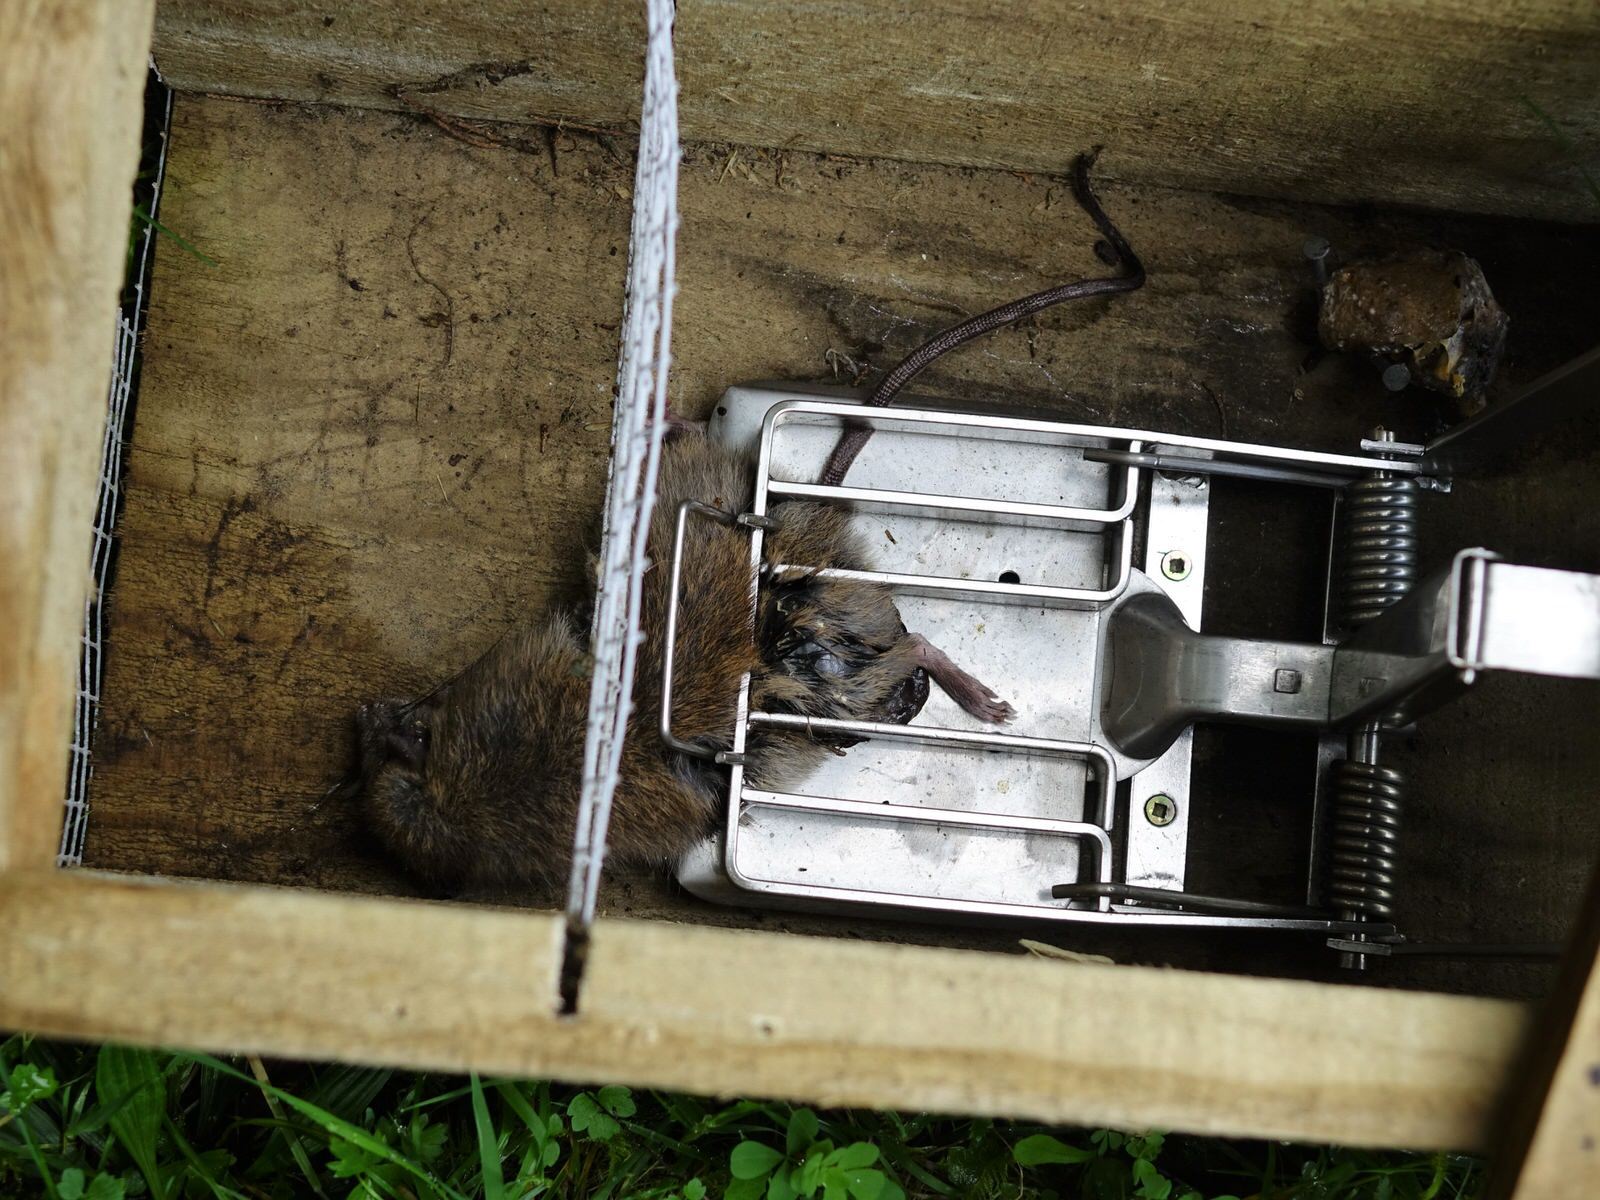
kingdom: Animalia
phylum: Chordata
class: Mammalia
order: Rodentia
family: Muridae
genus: Rattus
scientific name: Rattus rattus
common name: Black rat
